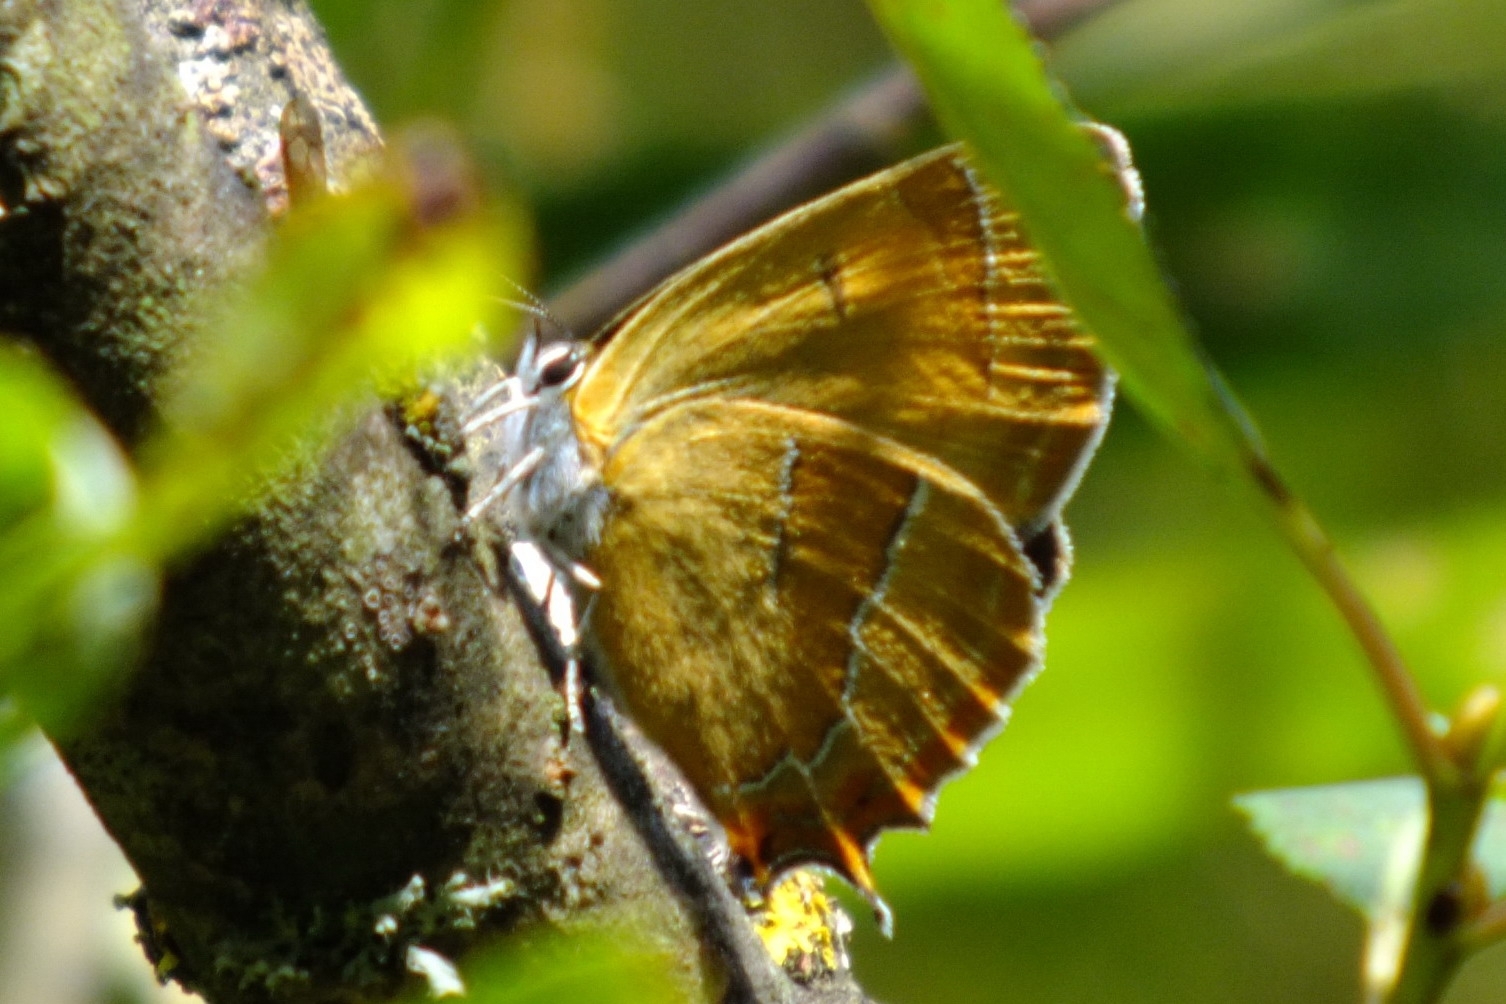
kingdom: Animalia
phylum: Arthropoda
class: Insecta
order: Lepidoptera
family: Lycaenidae
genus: Thecla
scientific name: Thecla betulae
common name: Brown hairstreak
